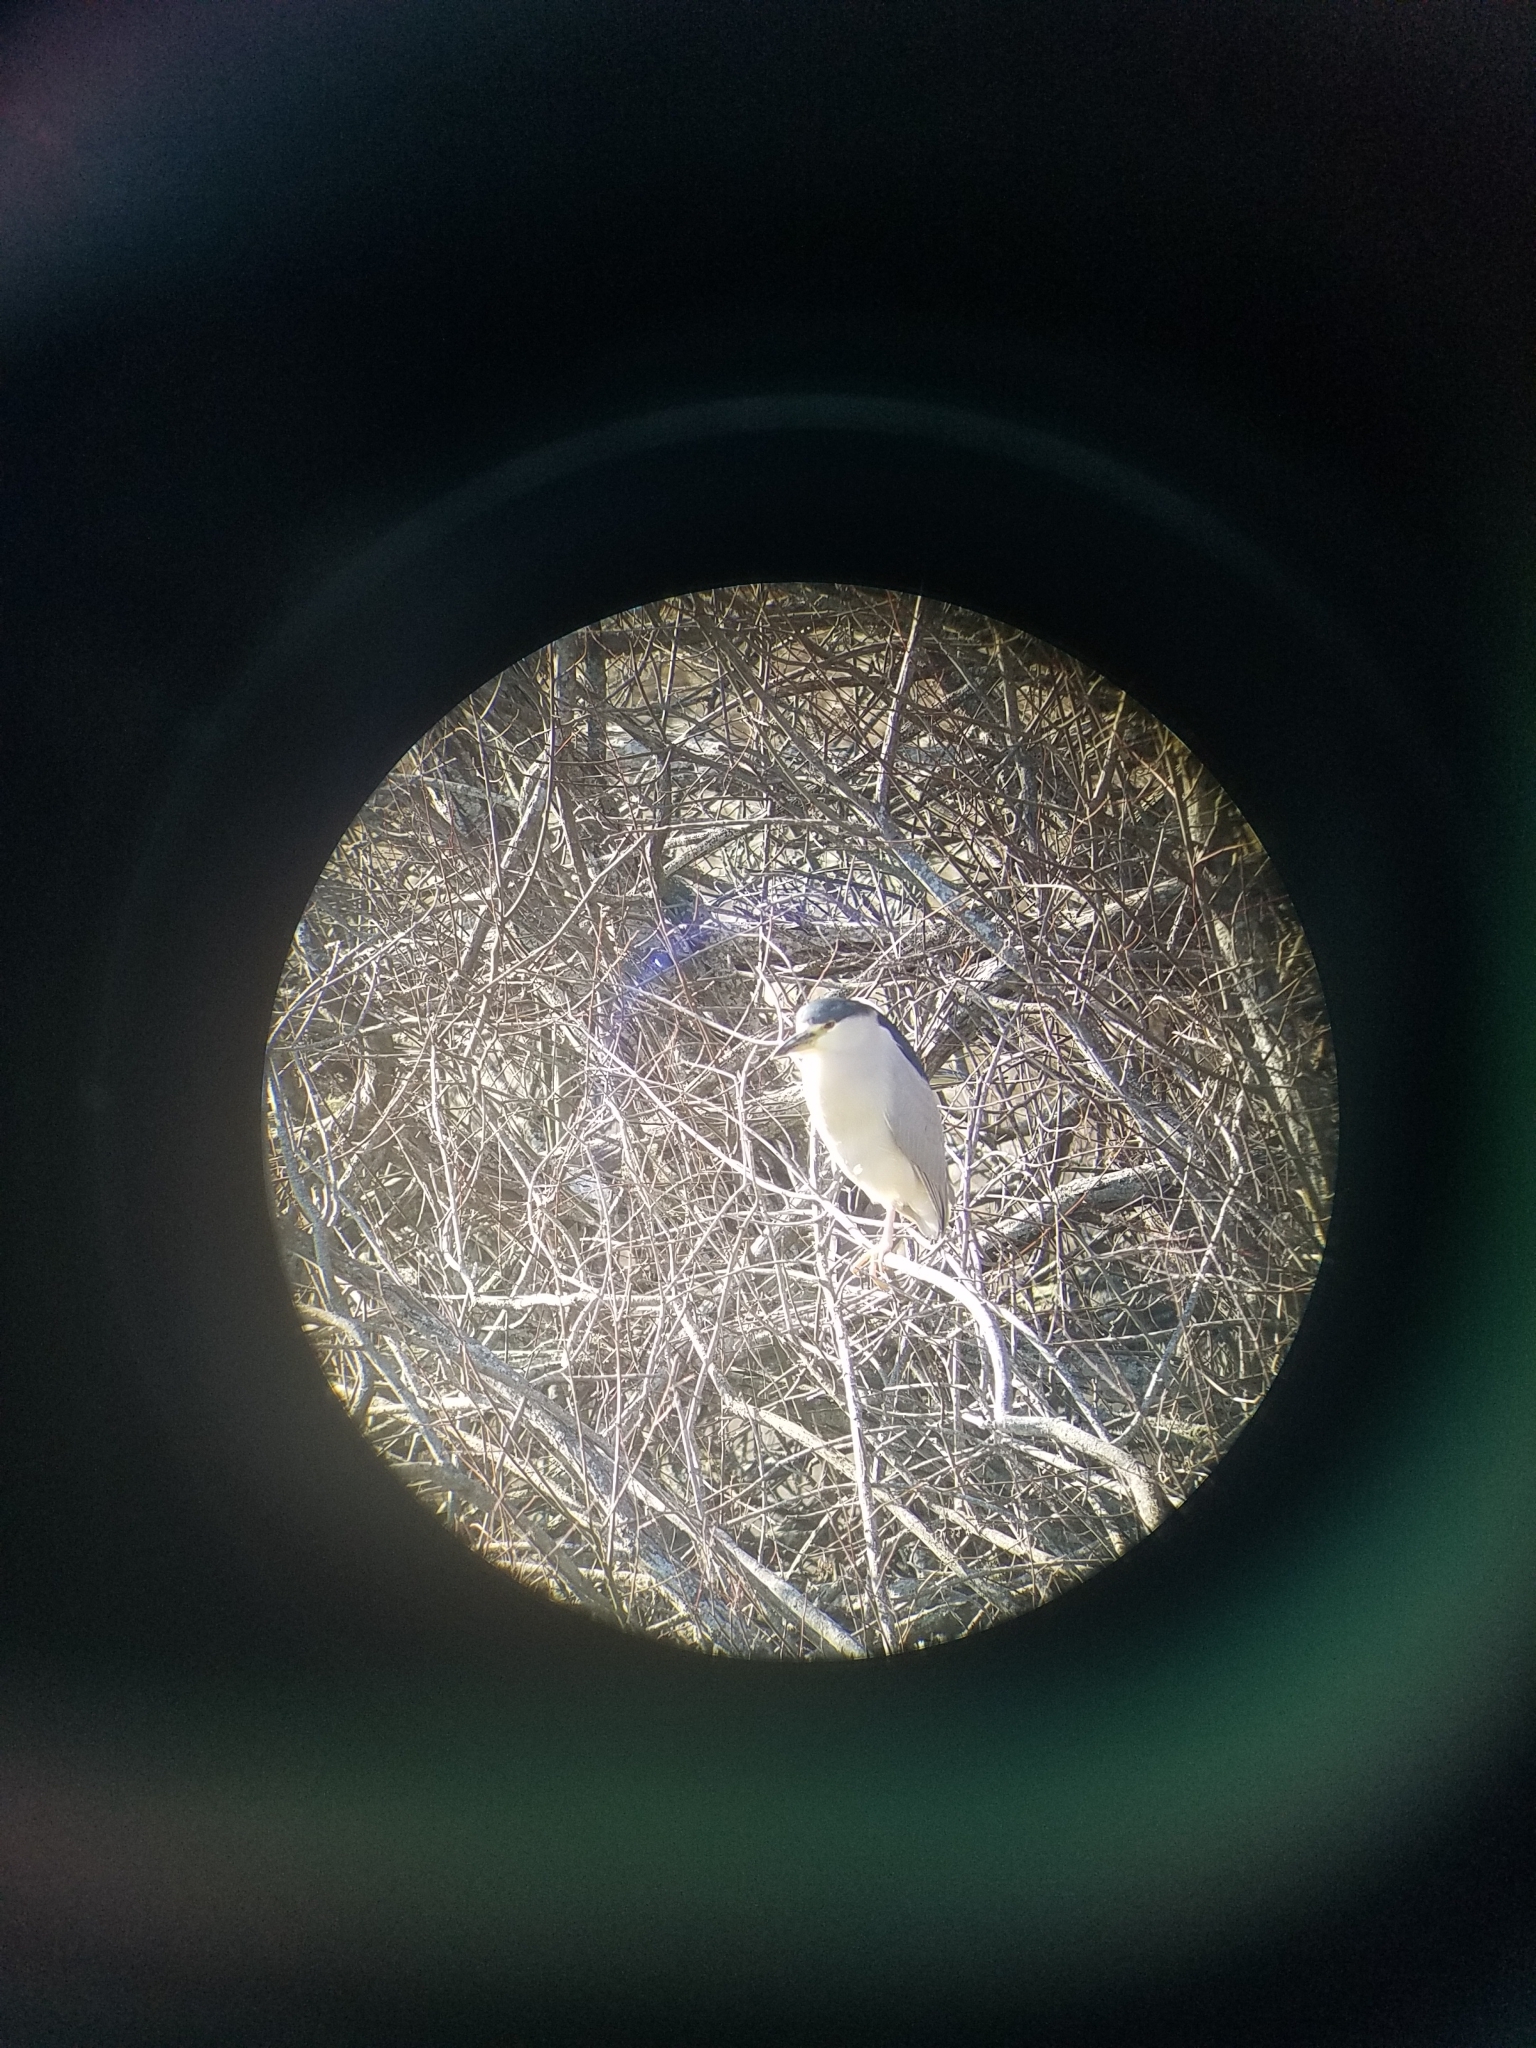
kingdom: Animalia
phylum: Chordata
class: Aves
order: Pelecaniformes
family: Ardeidae
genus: Nycticorax
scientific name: Nycticorax nycticorax
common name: Black-crowned night heron
